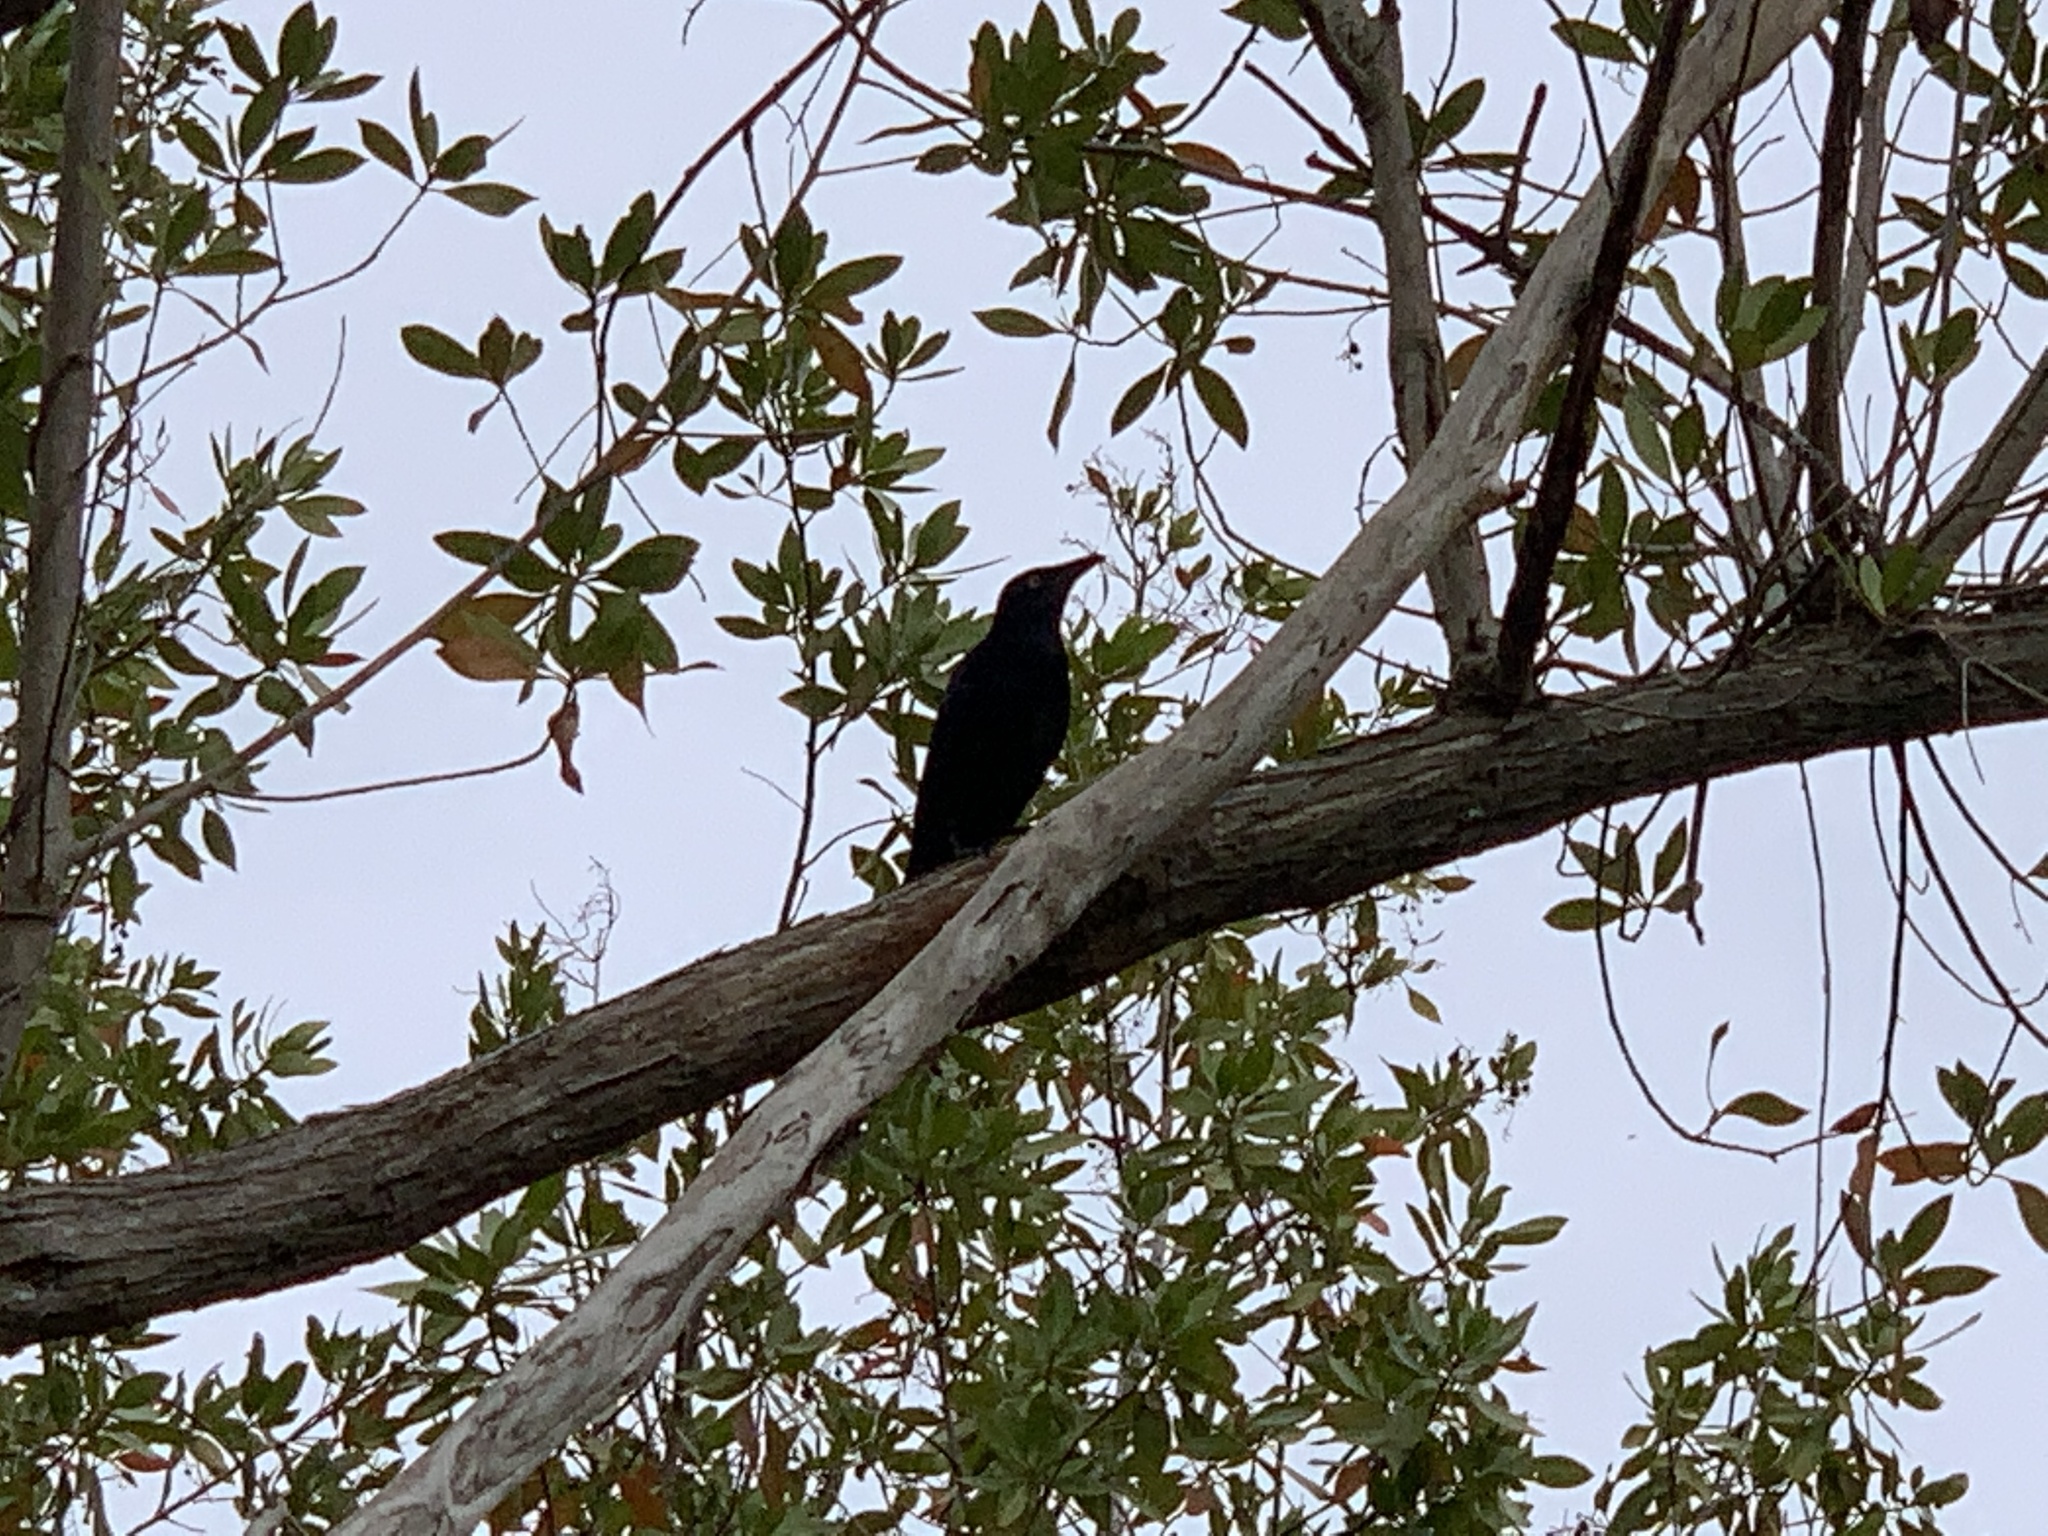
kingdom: Animalia
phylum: Chordata
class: Aves
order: Passeriformes
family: Icteridae
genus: Quiscalus
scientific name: Quiscalus quiscula
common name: Common grackle
